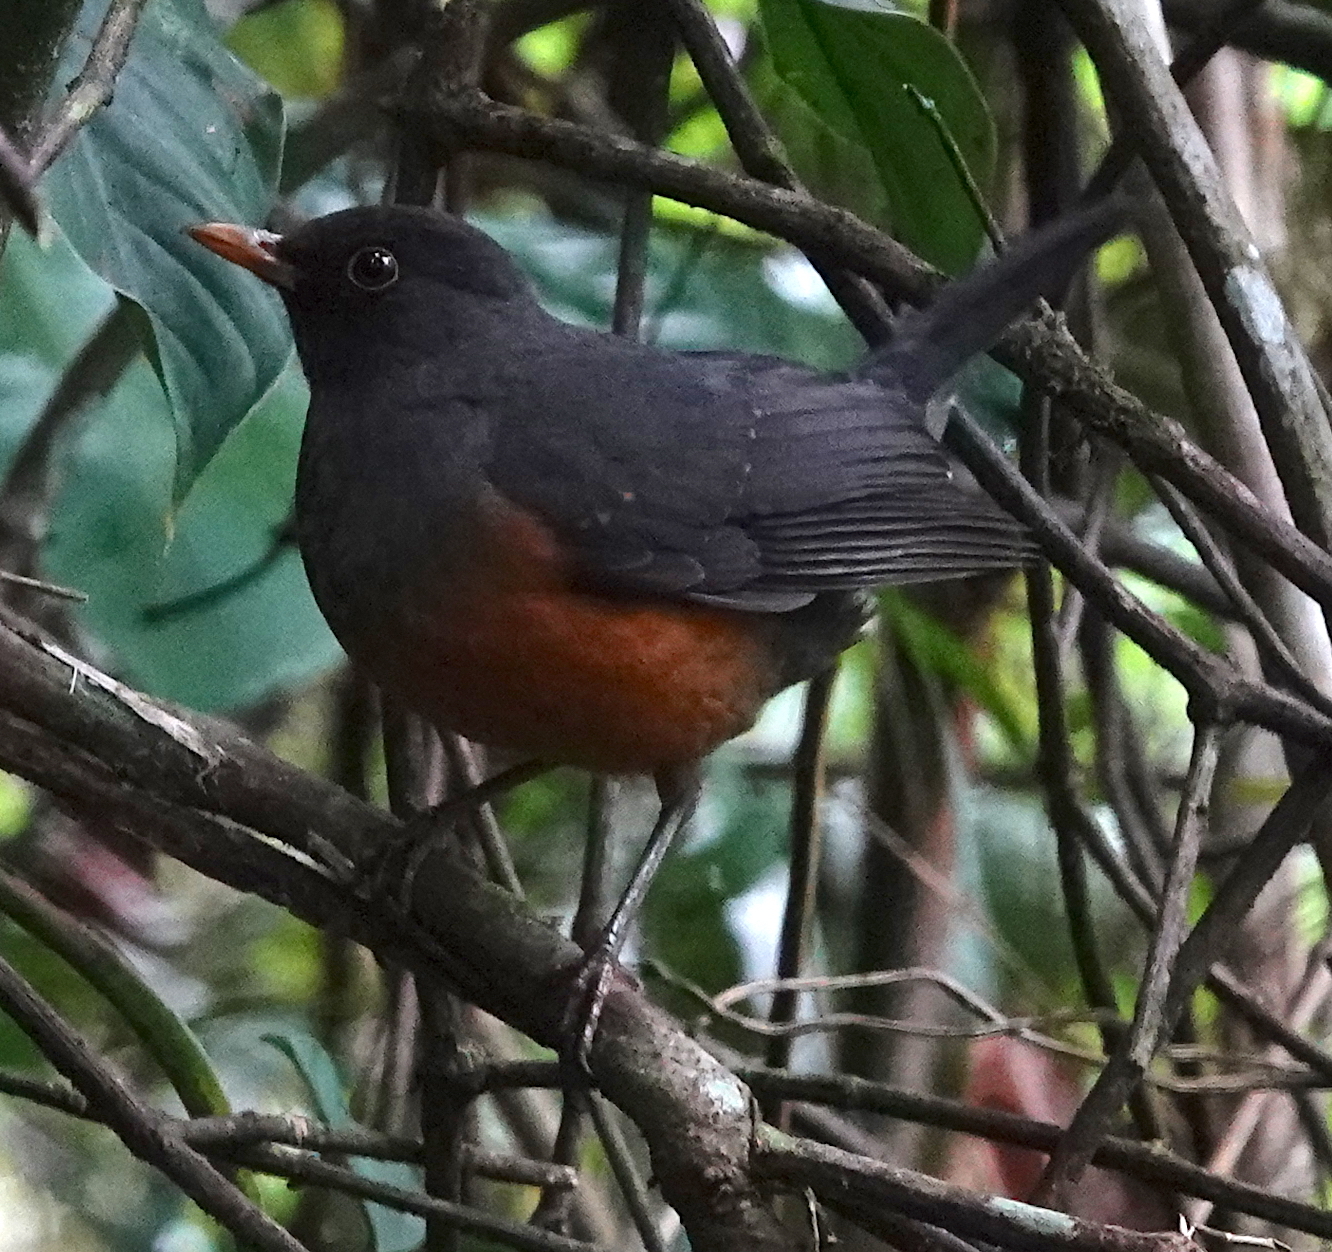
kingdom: Animalia
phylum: Chordata
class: Aves
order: Passeriformes
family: Turdidae
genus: Turdus
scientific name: Turdus fulviventris
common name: Chestnut-bellied thrush
